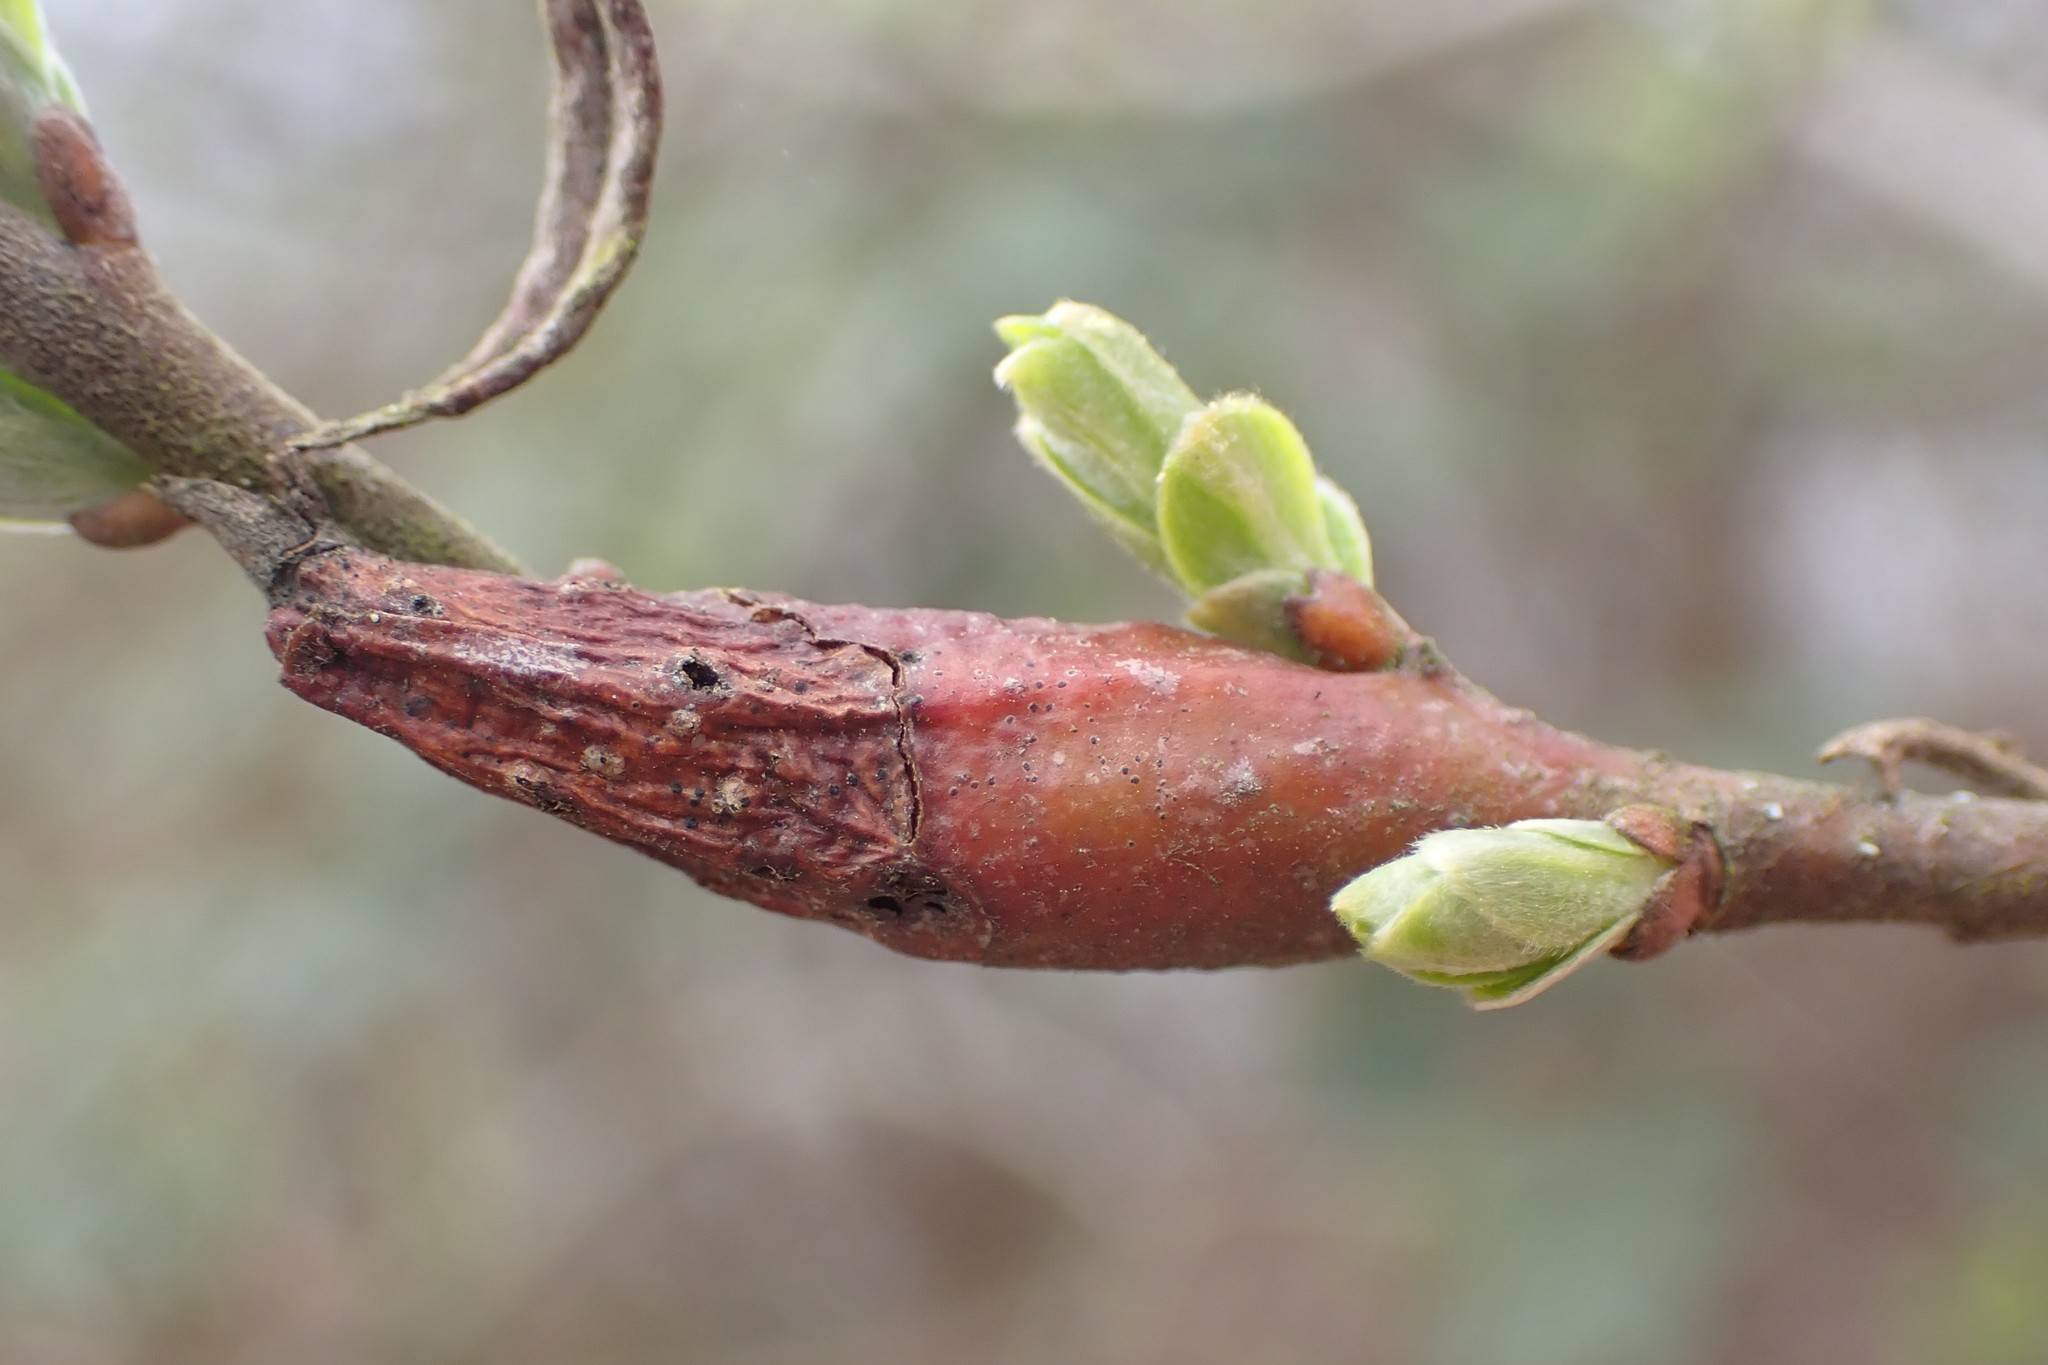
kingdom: Animalia
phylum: Arthropoda
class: Insecta
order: Diptera
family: Cecidomyiidae
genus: Thecodiplosis
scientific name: Thecodiplosis pinirigidae
